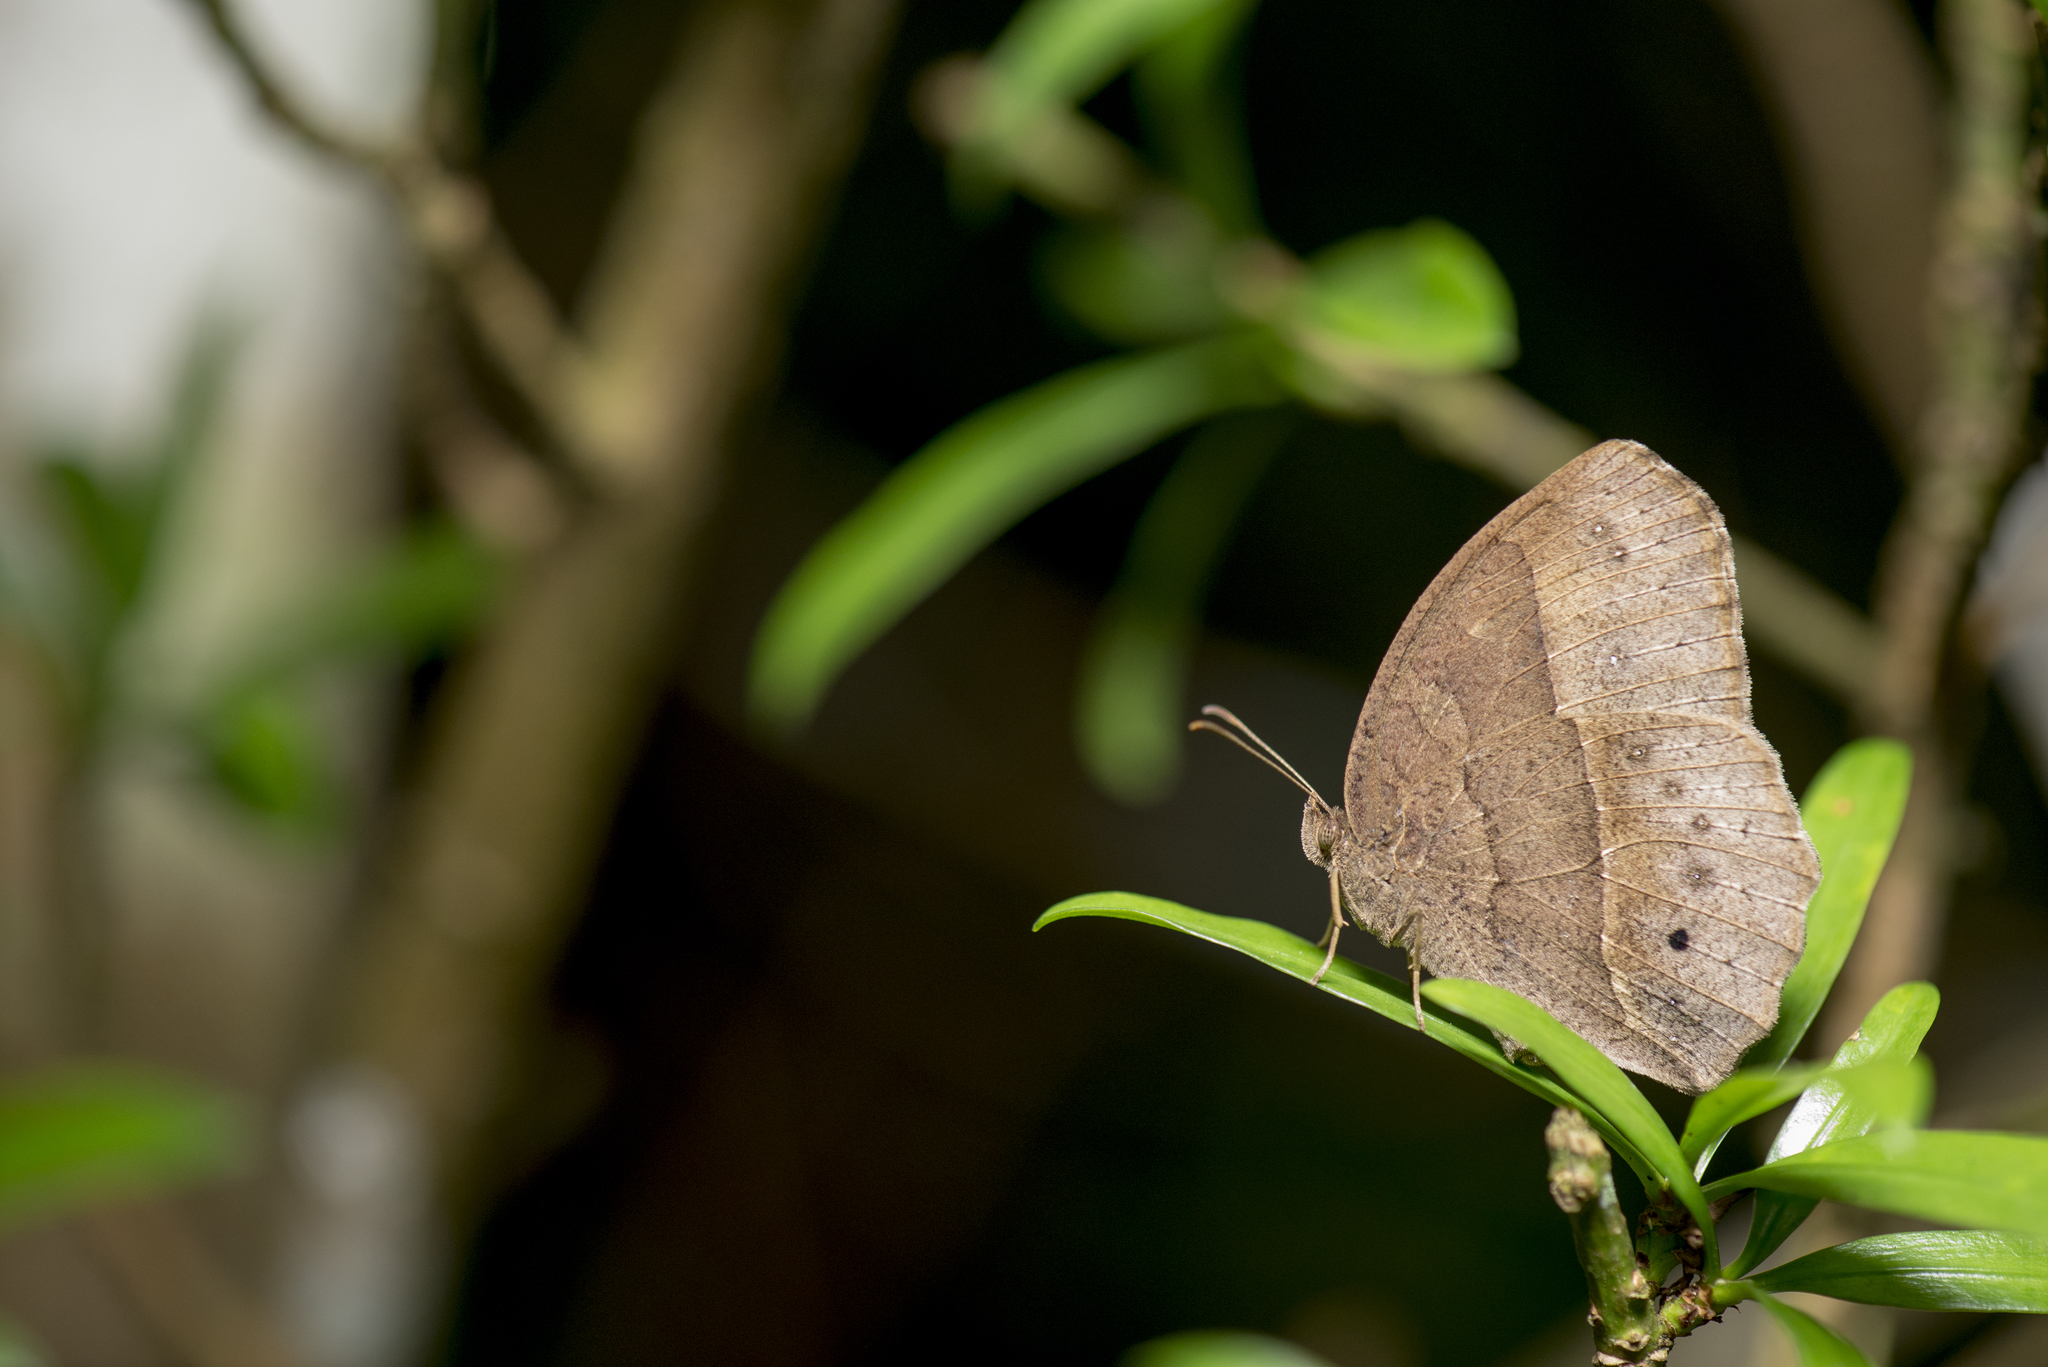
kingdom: Animalia
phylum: Arthropoda
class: Insecta
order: Lepidoptera
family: Nymphalidae
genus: Mycalesis
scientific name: Mycalesis horsfieldii
